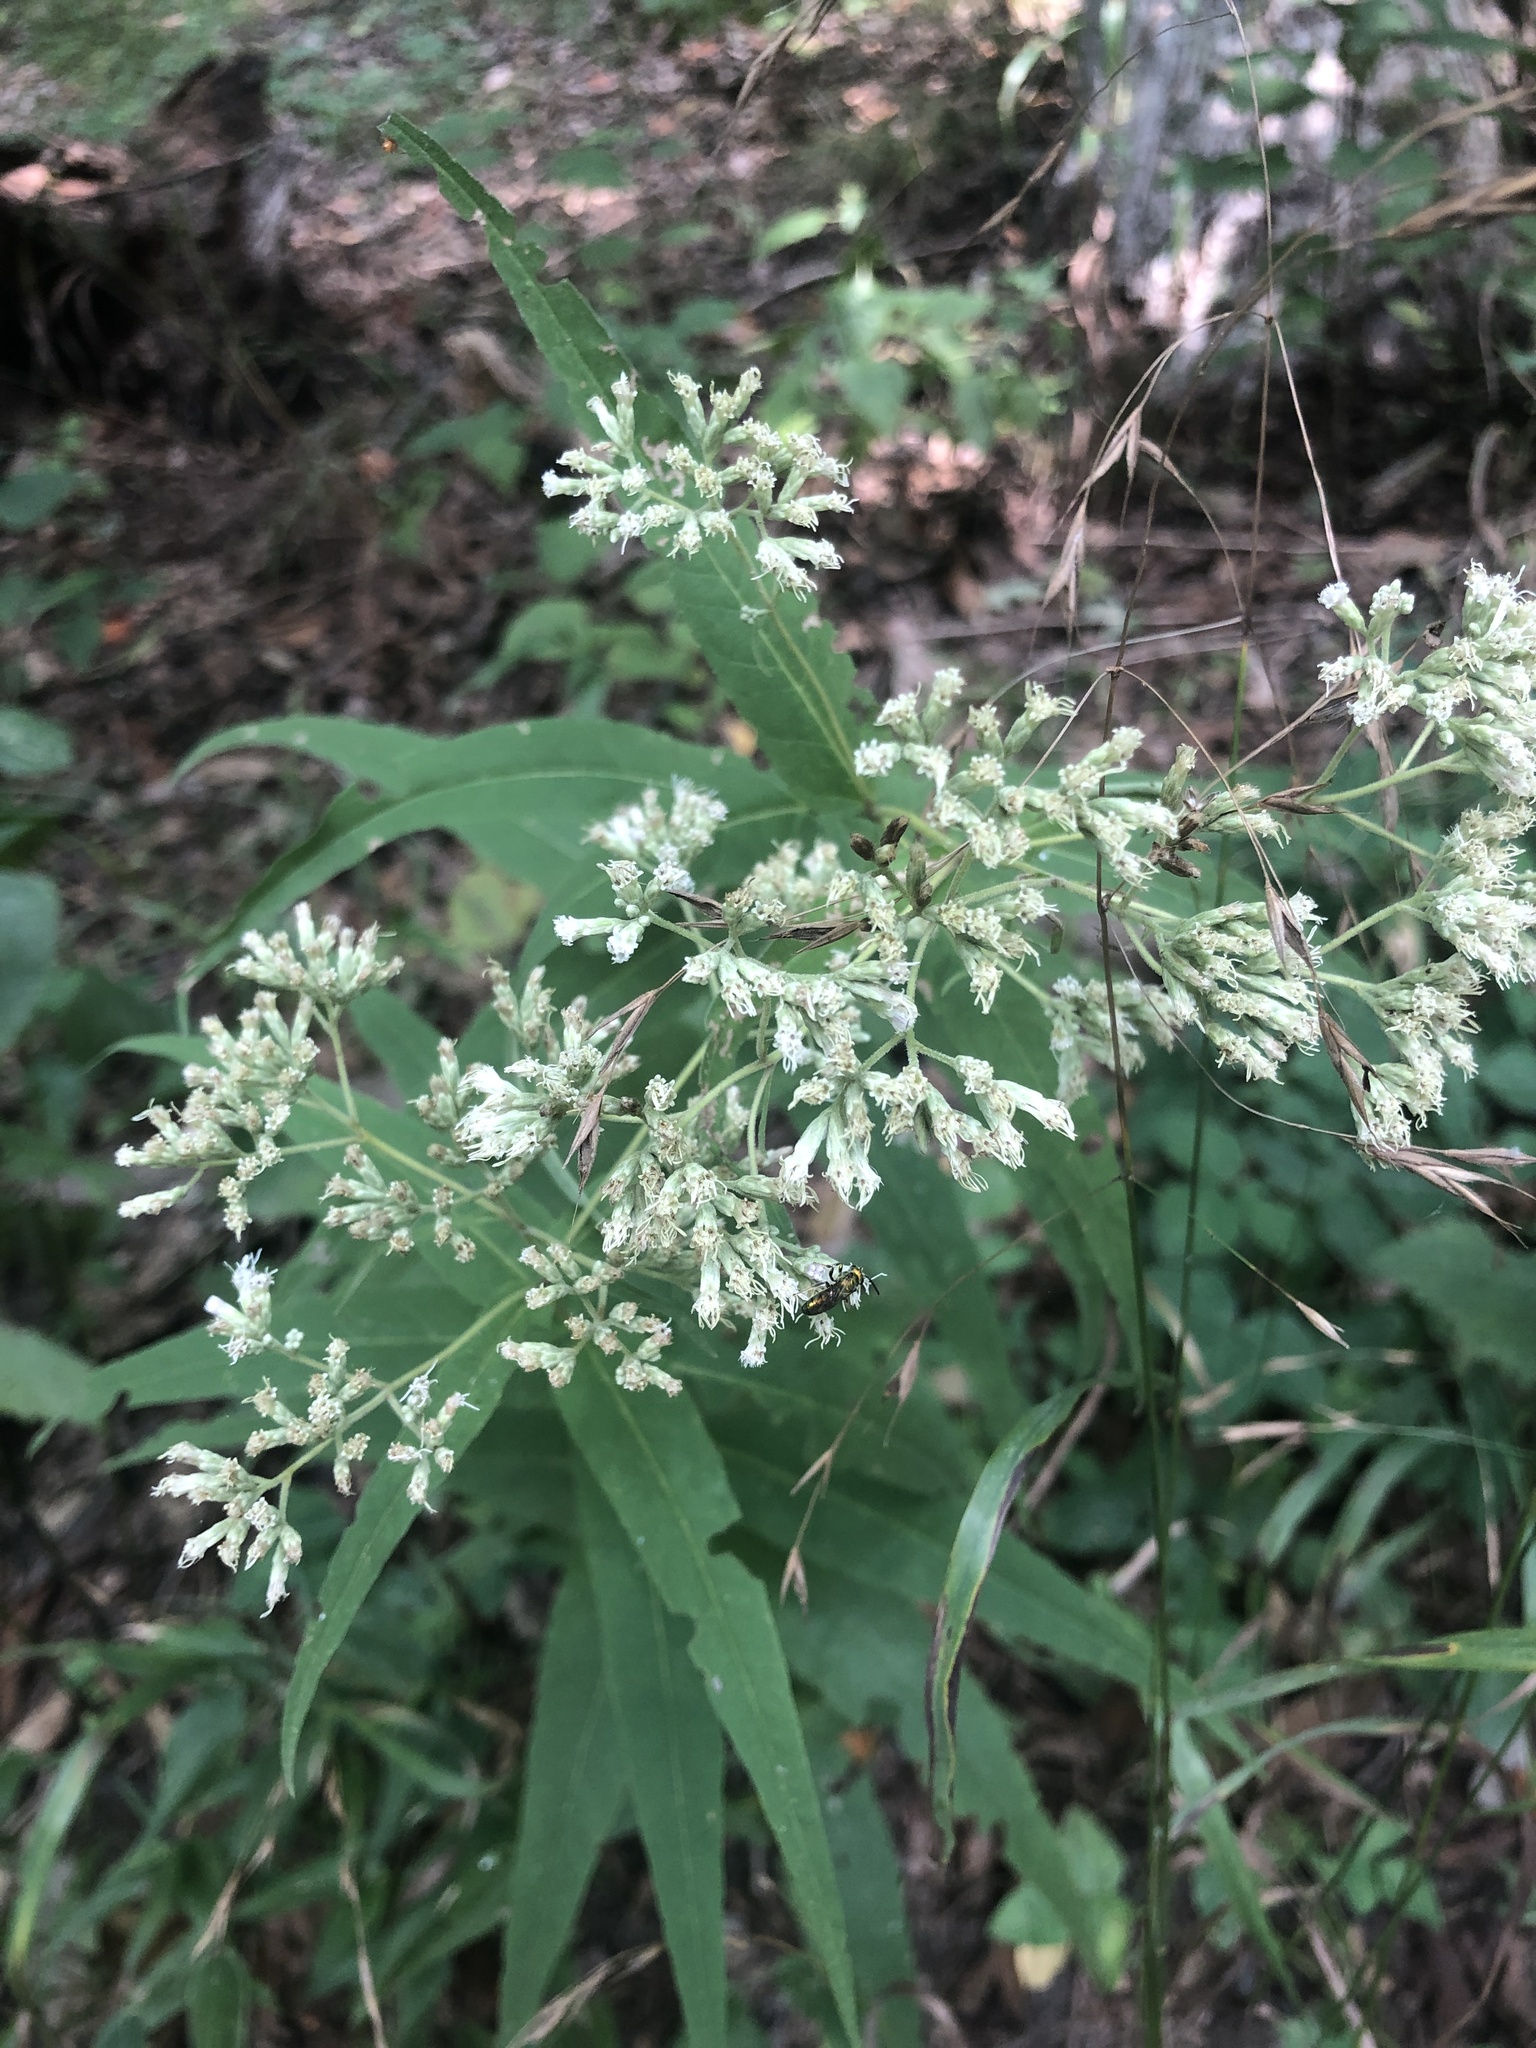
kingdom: Plantae
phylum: Tracheophyta
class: Magnoliopsida
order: Asterales
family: Asteraceae
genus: Eupatorium
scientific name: Eupatorium sessilifolium
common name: Upland boneset
